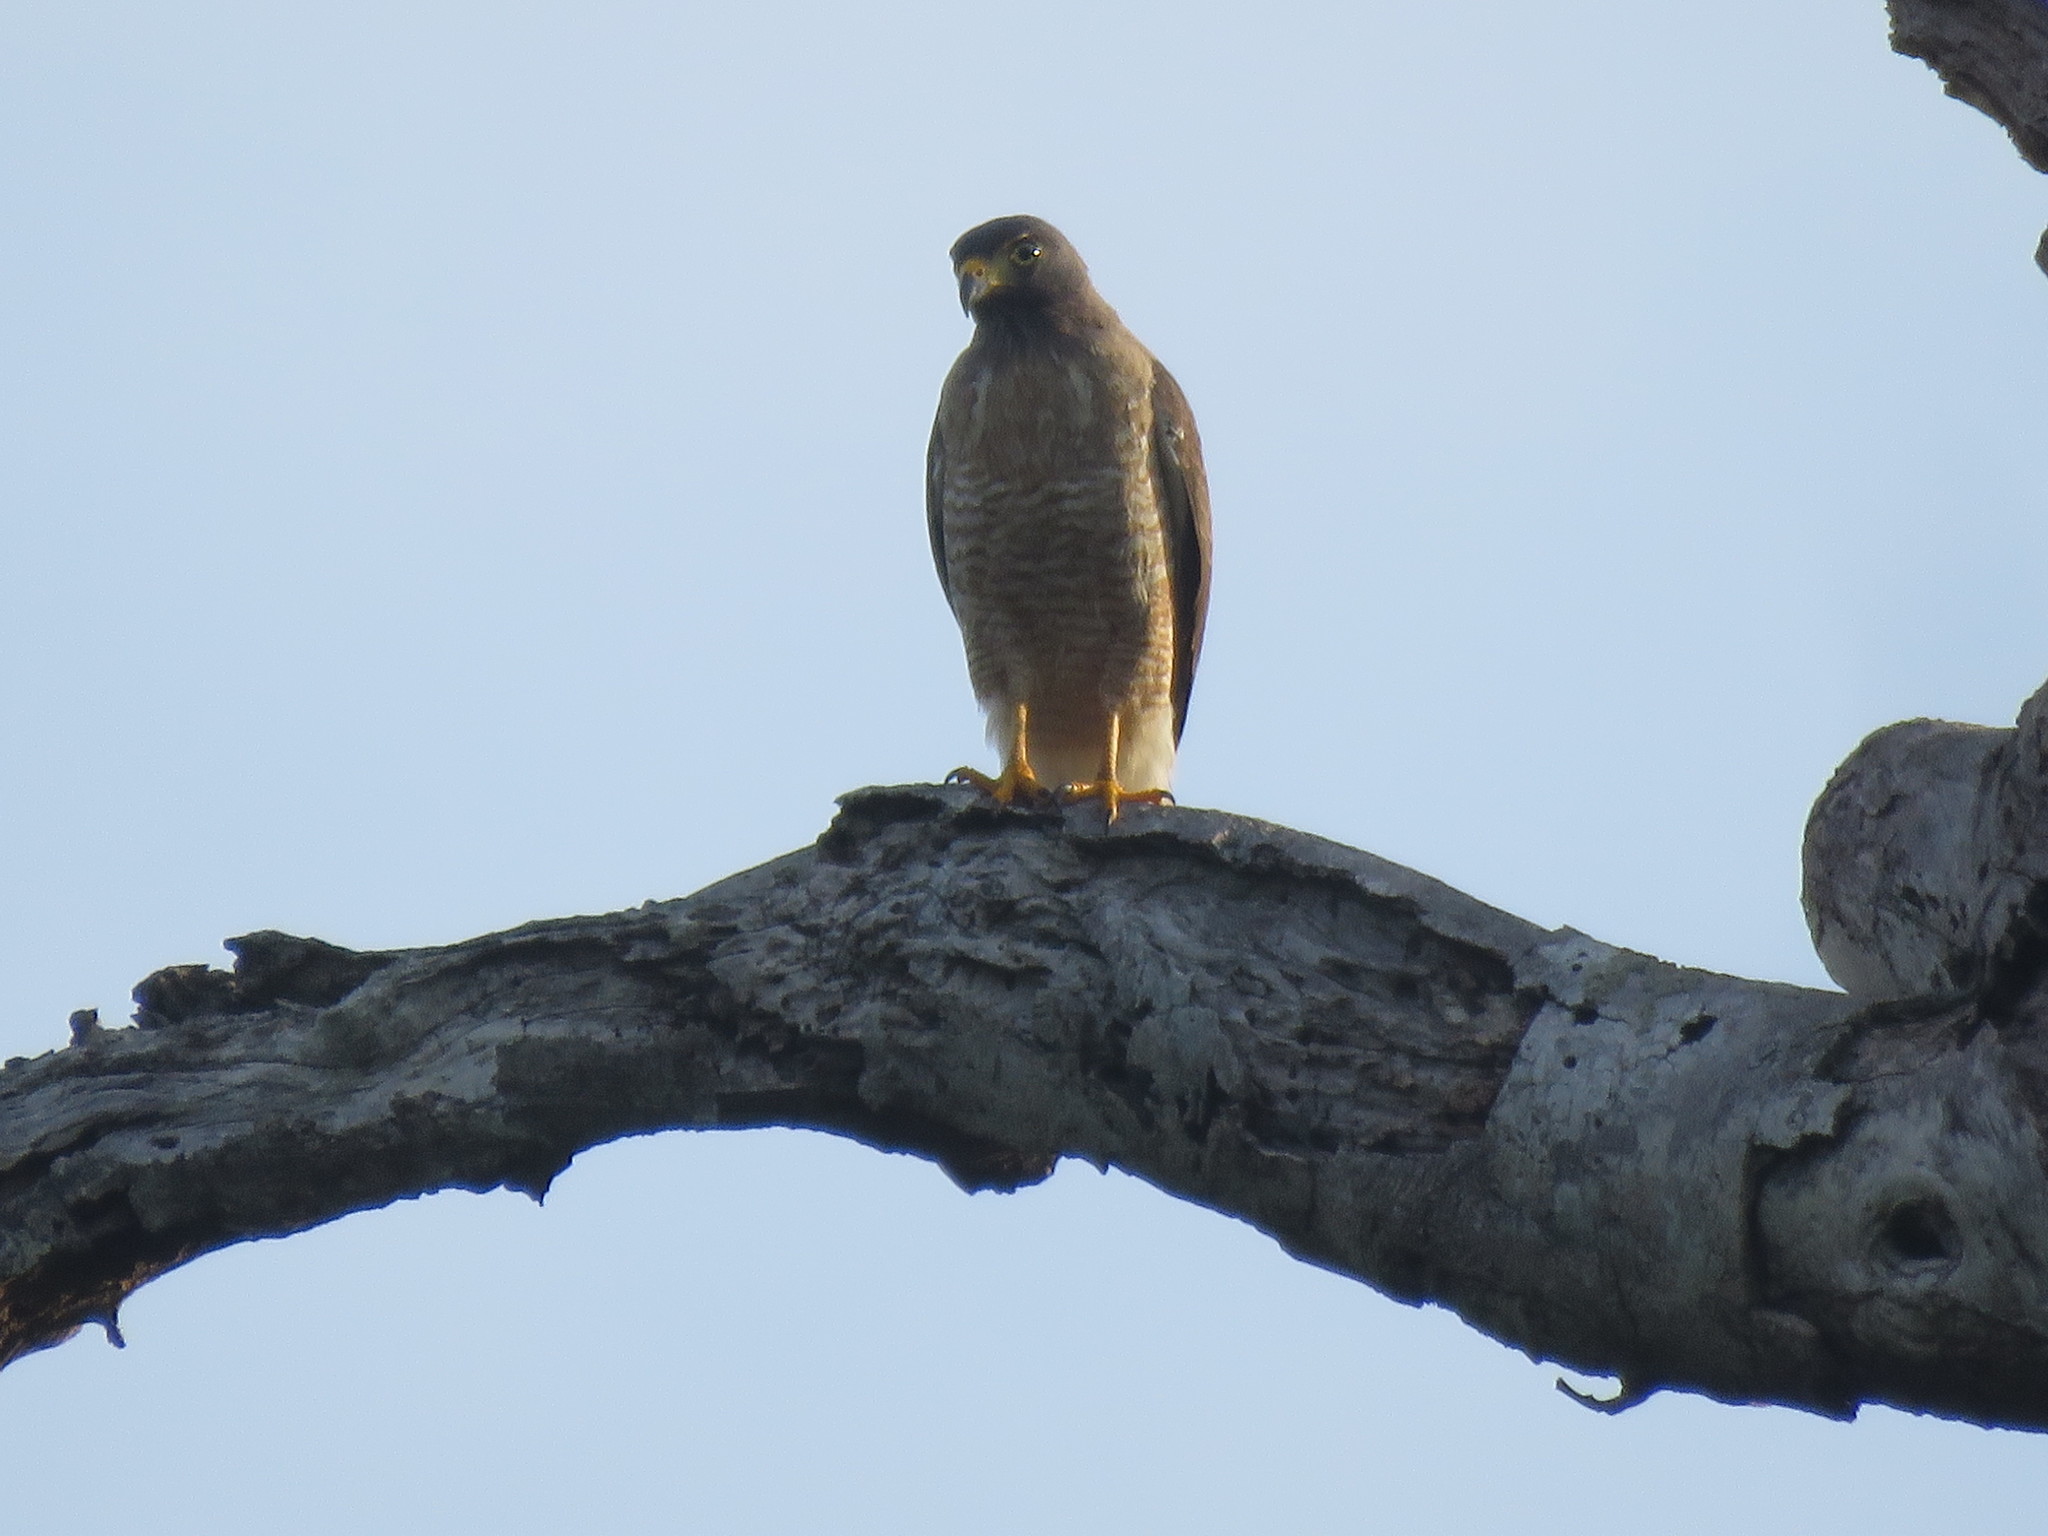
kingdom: Animalia
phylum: Chordata
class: Aves
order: Accipitriformes
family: Accipitridae
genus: Rupornis
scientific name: Rupornis magnirostris
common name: Roadside hawk
